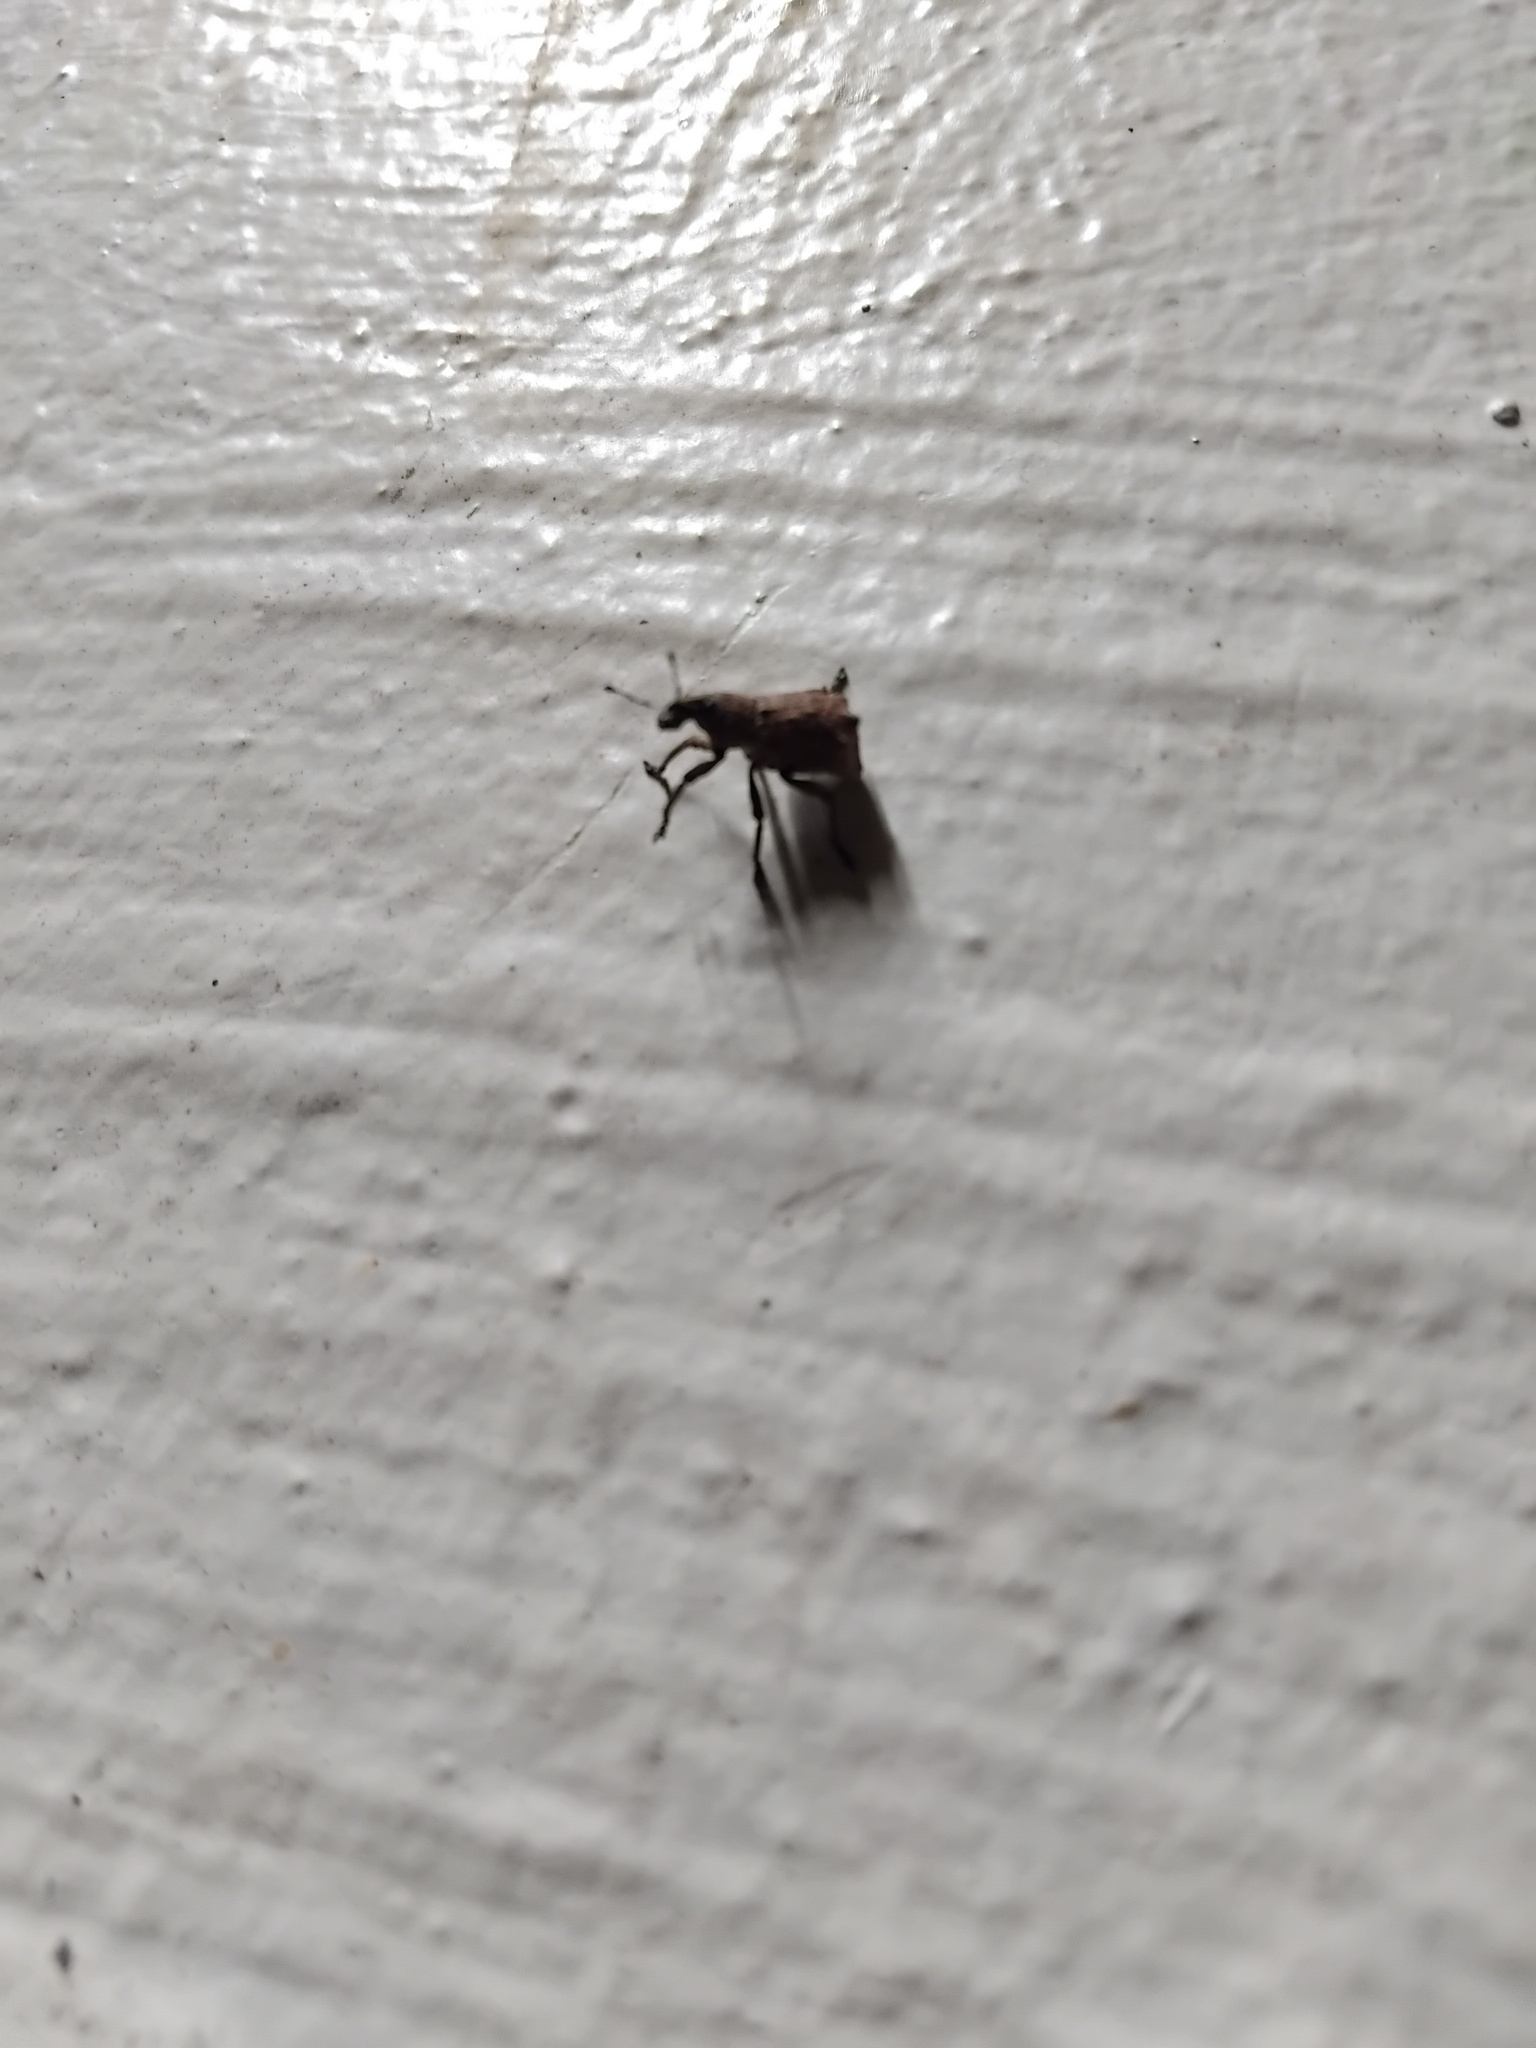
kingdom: Animalia
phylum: Arthropoda
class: Insecta
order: Coleoptera
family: Curculionidae
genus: Amnemus
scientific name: Amnemus quadrituberculatus
